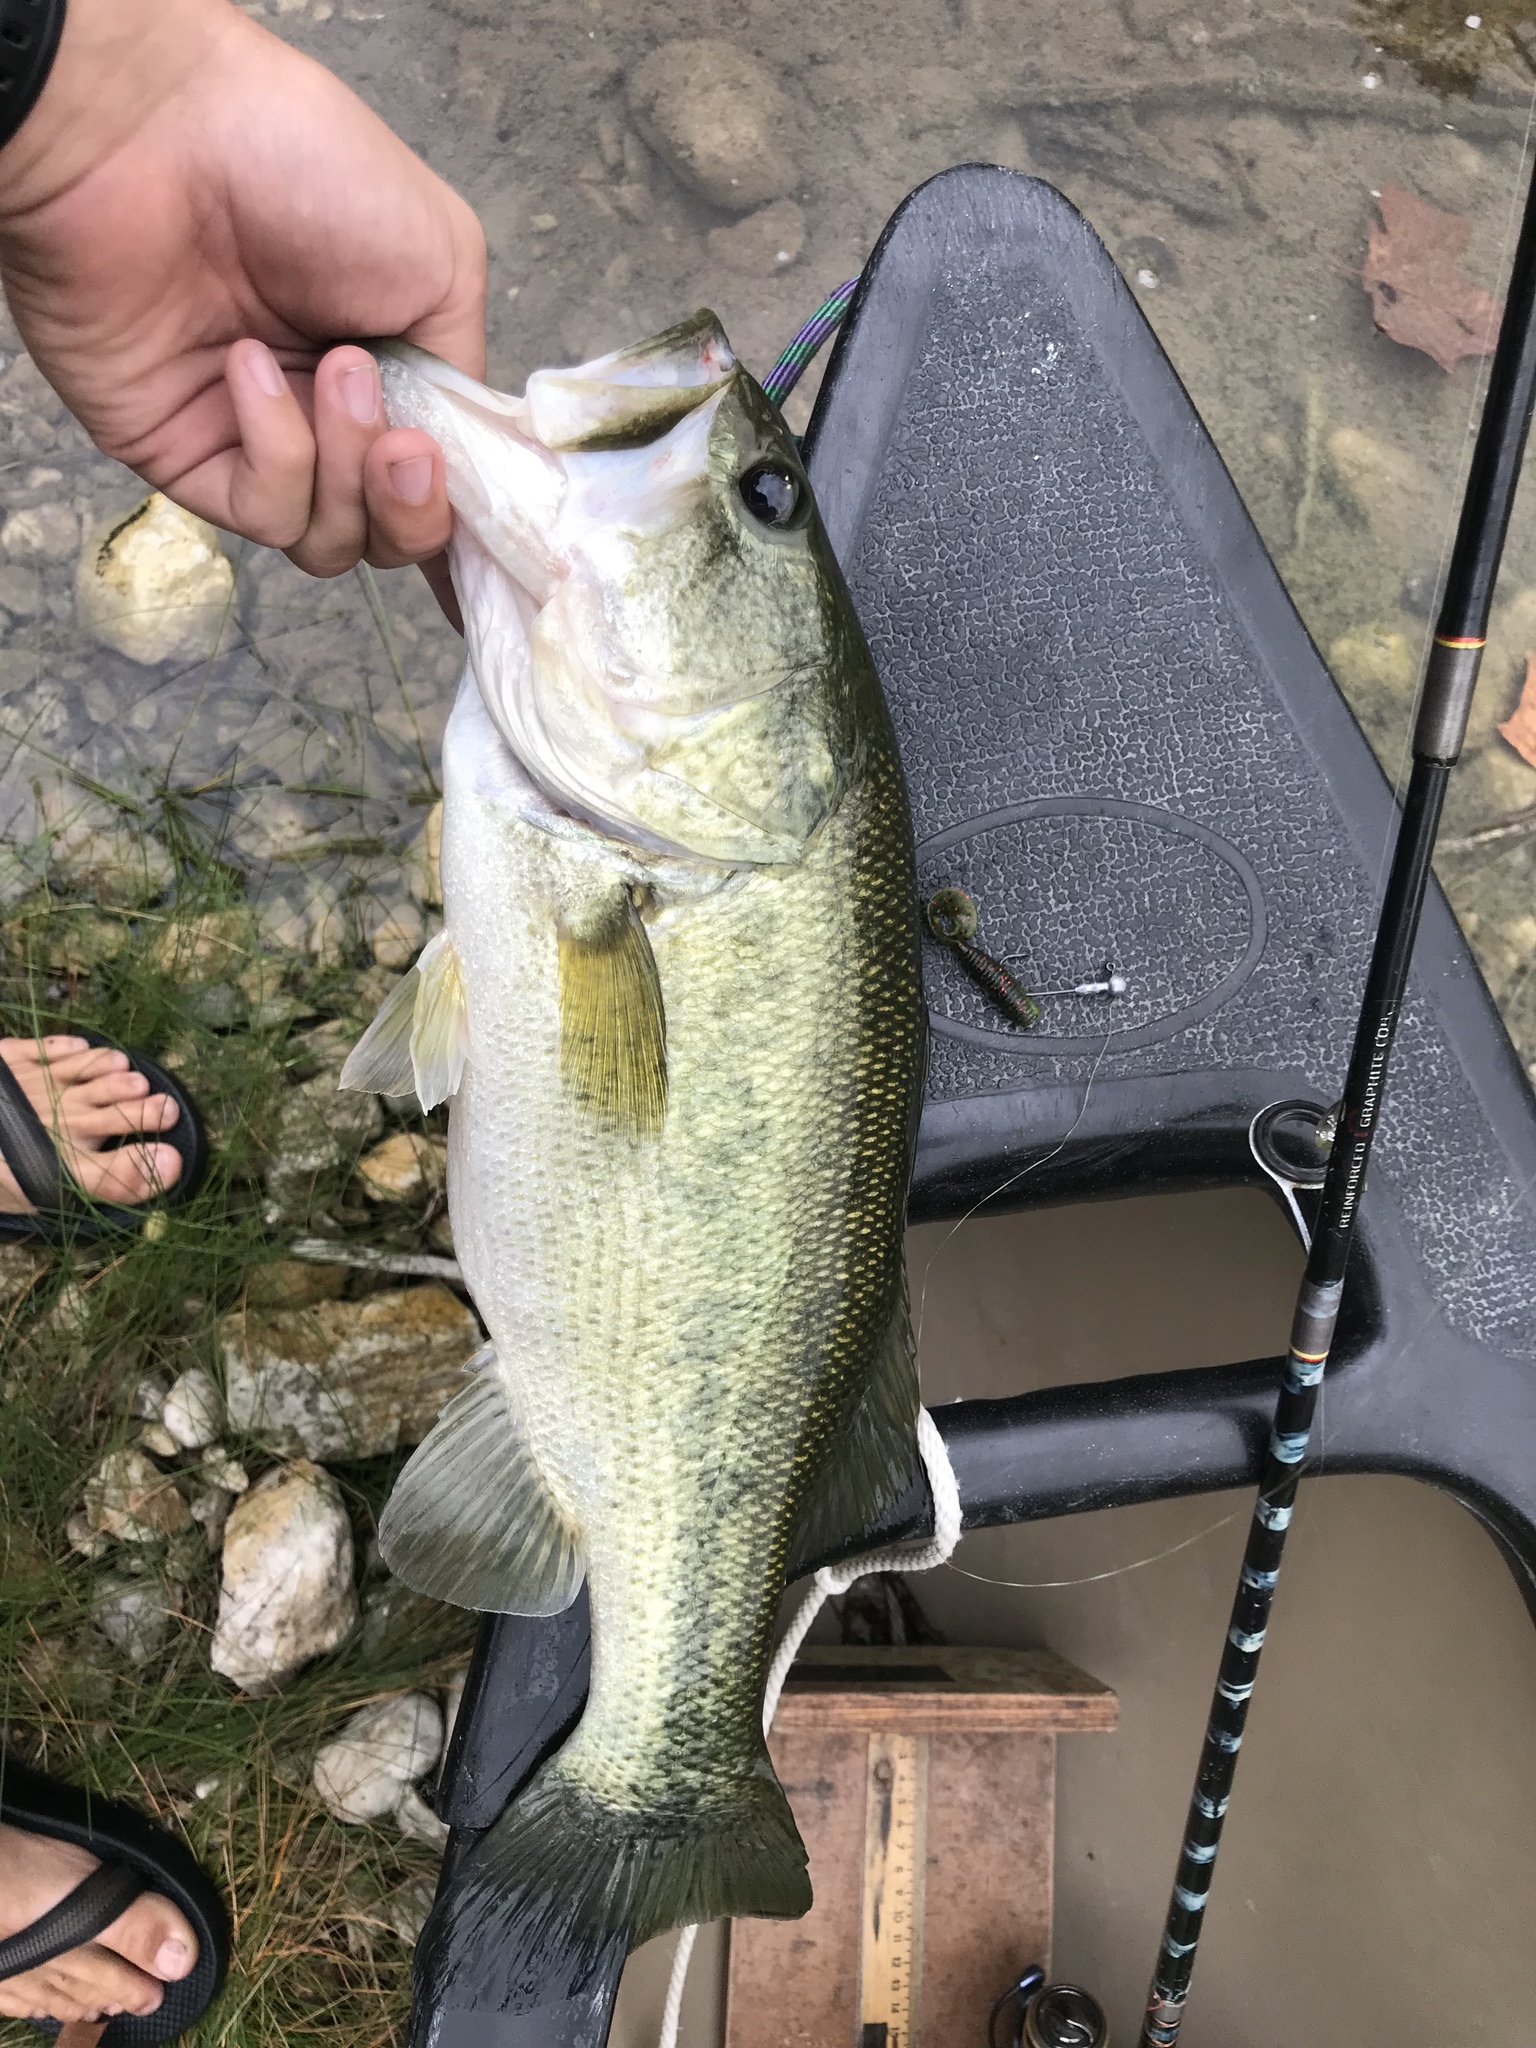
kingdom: Animalia
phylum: Chordata
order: Perciformes
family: Centrarchidae
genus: Micropterus
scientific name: Micropterus
